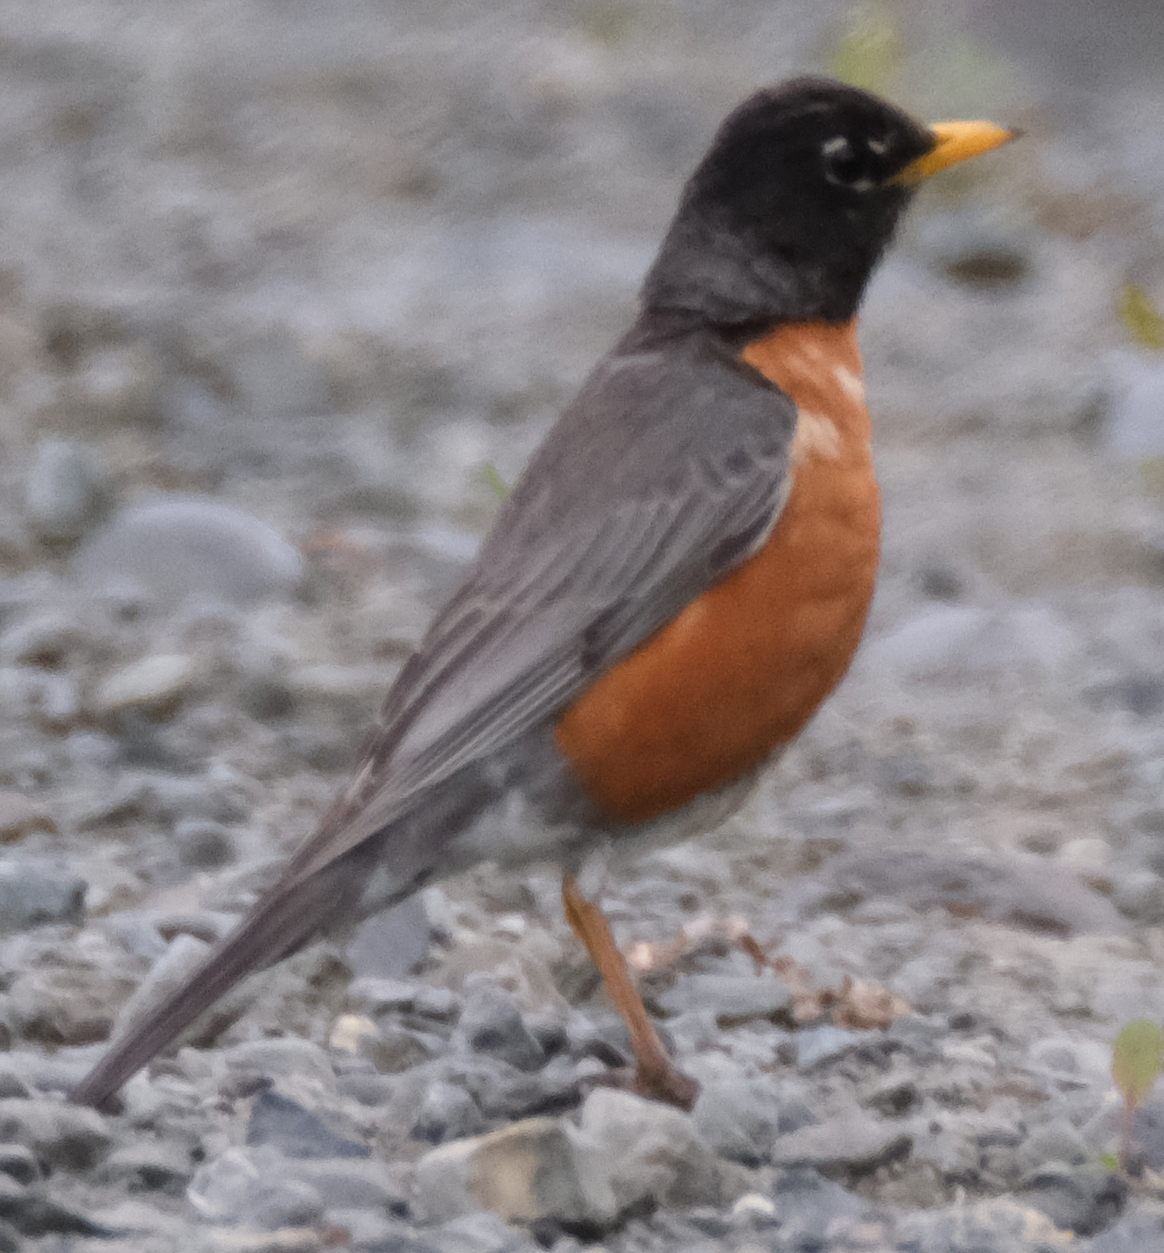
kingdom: Animalia
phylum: Chordata
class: Aves
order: Passeriformes
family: Turdidae
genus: Turdus
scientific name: Turdus migratorius
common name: American robin
